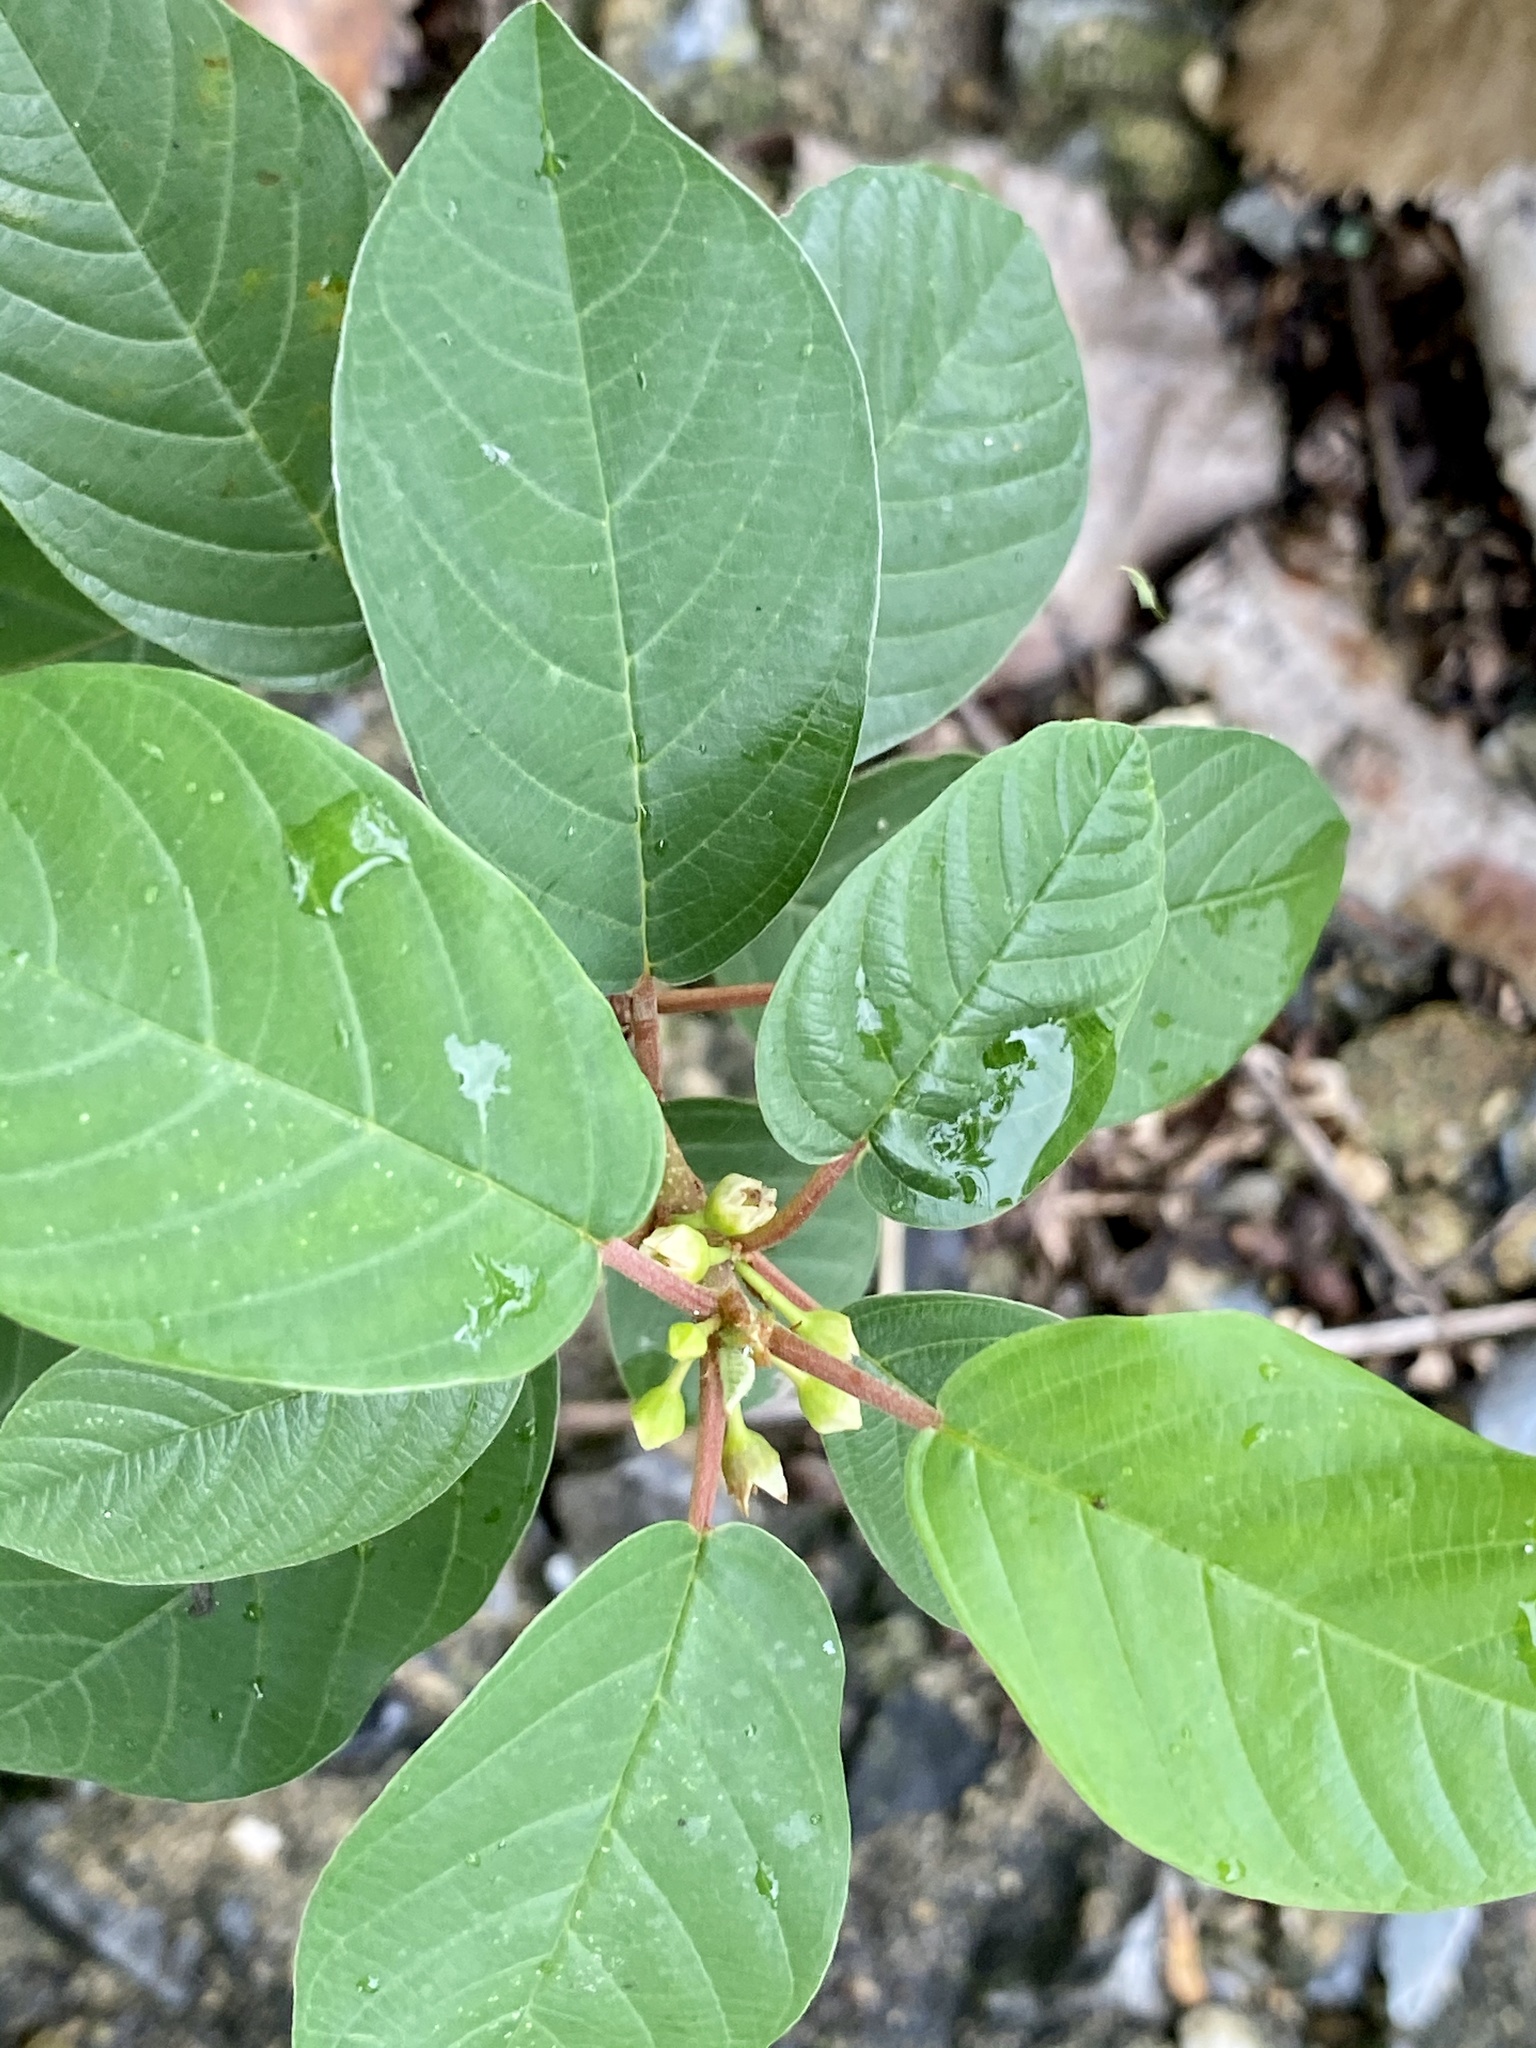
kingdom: Plantae
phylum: Tracheophyta
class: Magnoliopsida
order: Rosales
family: Rhamnaceae
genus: Frangula
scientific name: Frangula alnus
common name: Alder buckthorn
